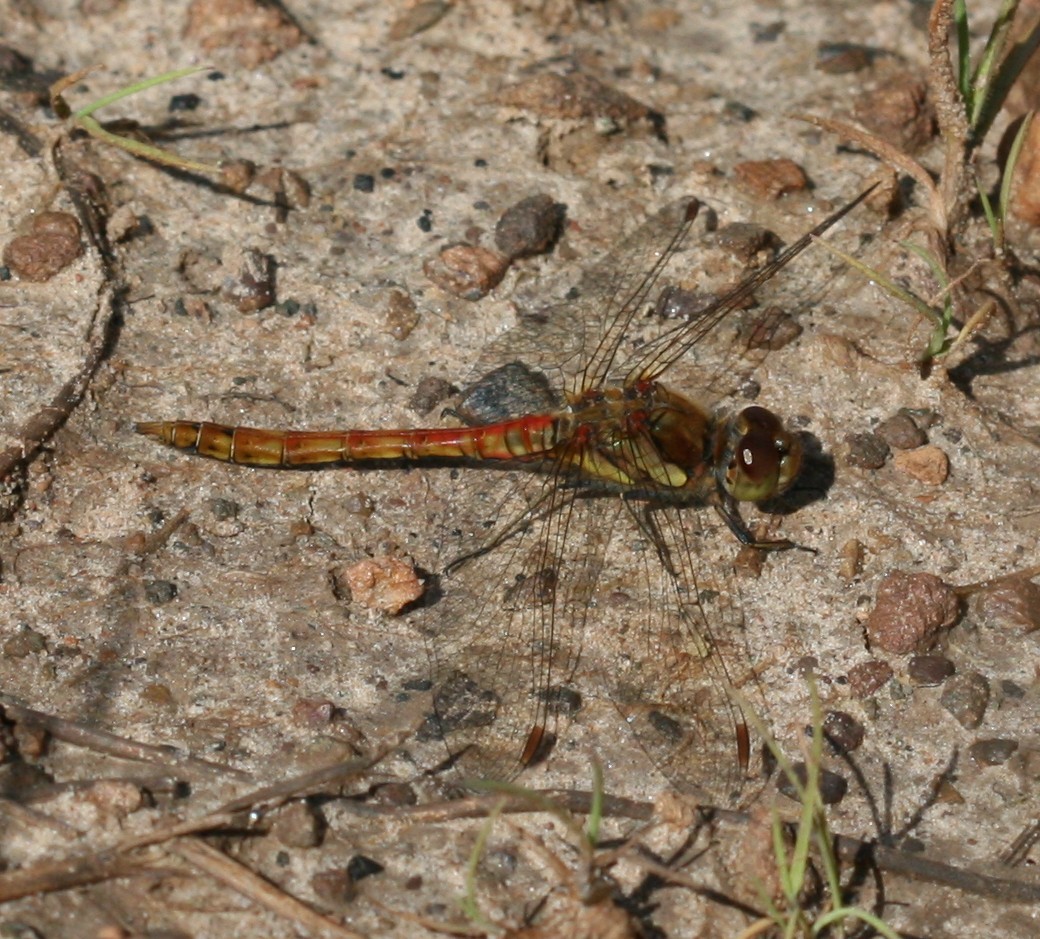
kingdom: Animalia
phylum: Arthropoda
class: Insecta
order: Odonata
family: Libellulidae
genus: Sympetrum
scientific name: Sympetrum striolatum
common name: Common darter
